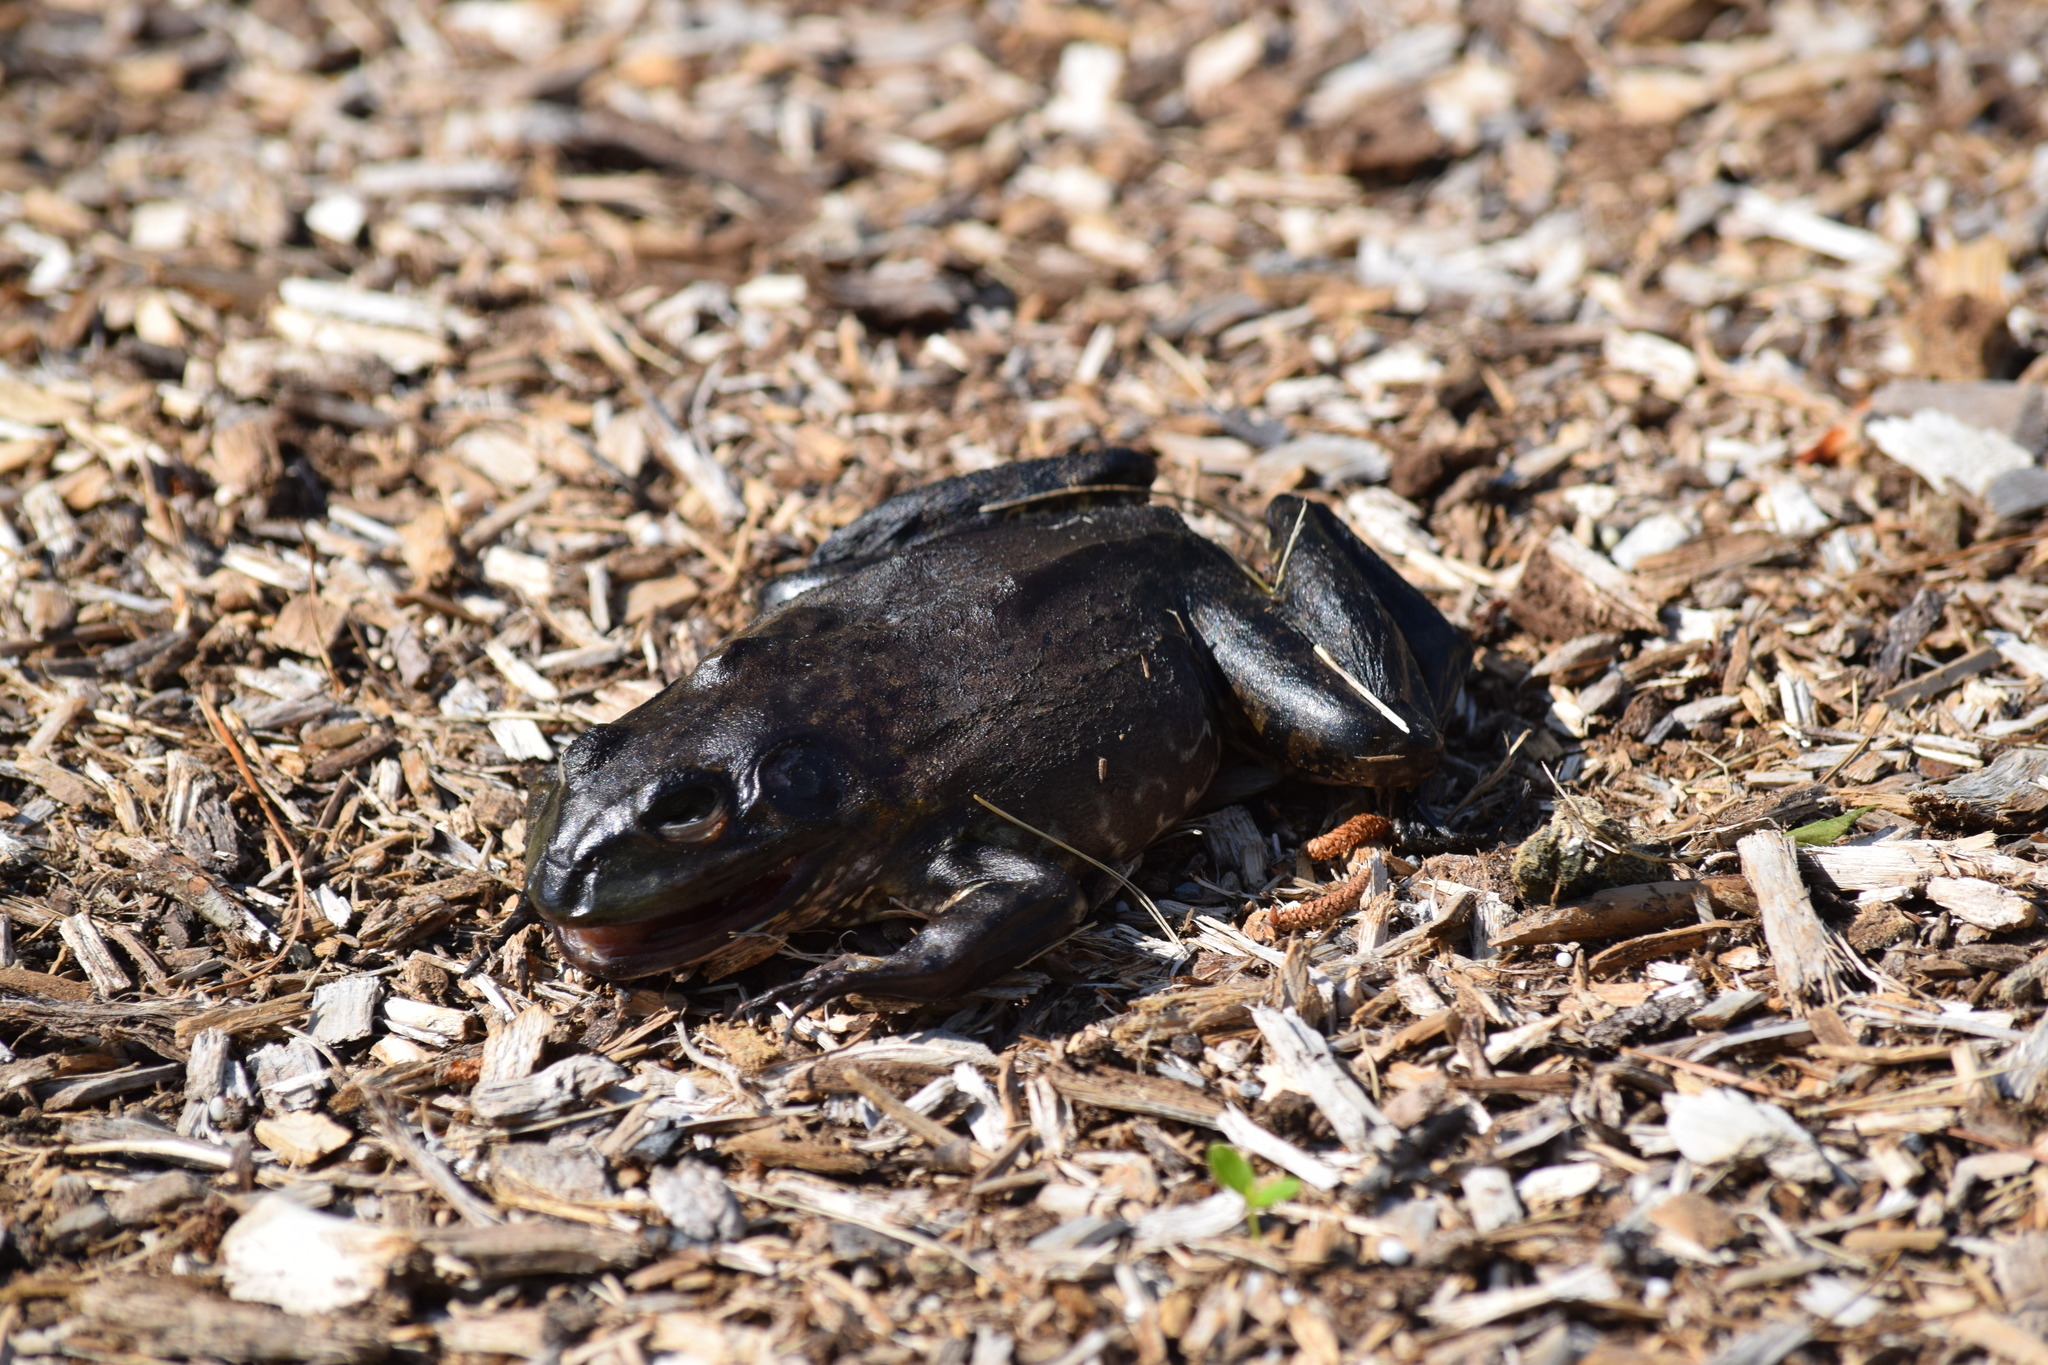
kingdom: Animalia
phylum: Chordata
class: Amphibia
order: Anura
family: Ranidae
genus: Lithobates
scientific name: Lithobates catesbeianus
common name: American bullfrog
